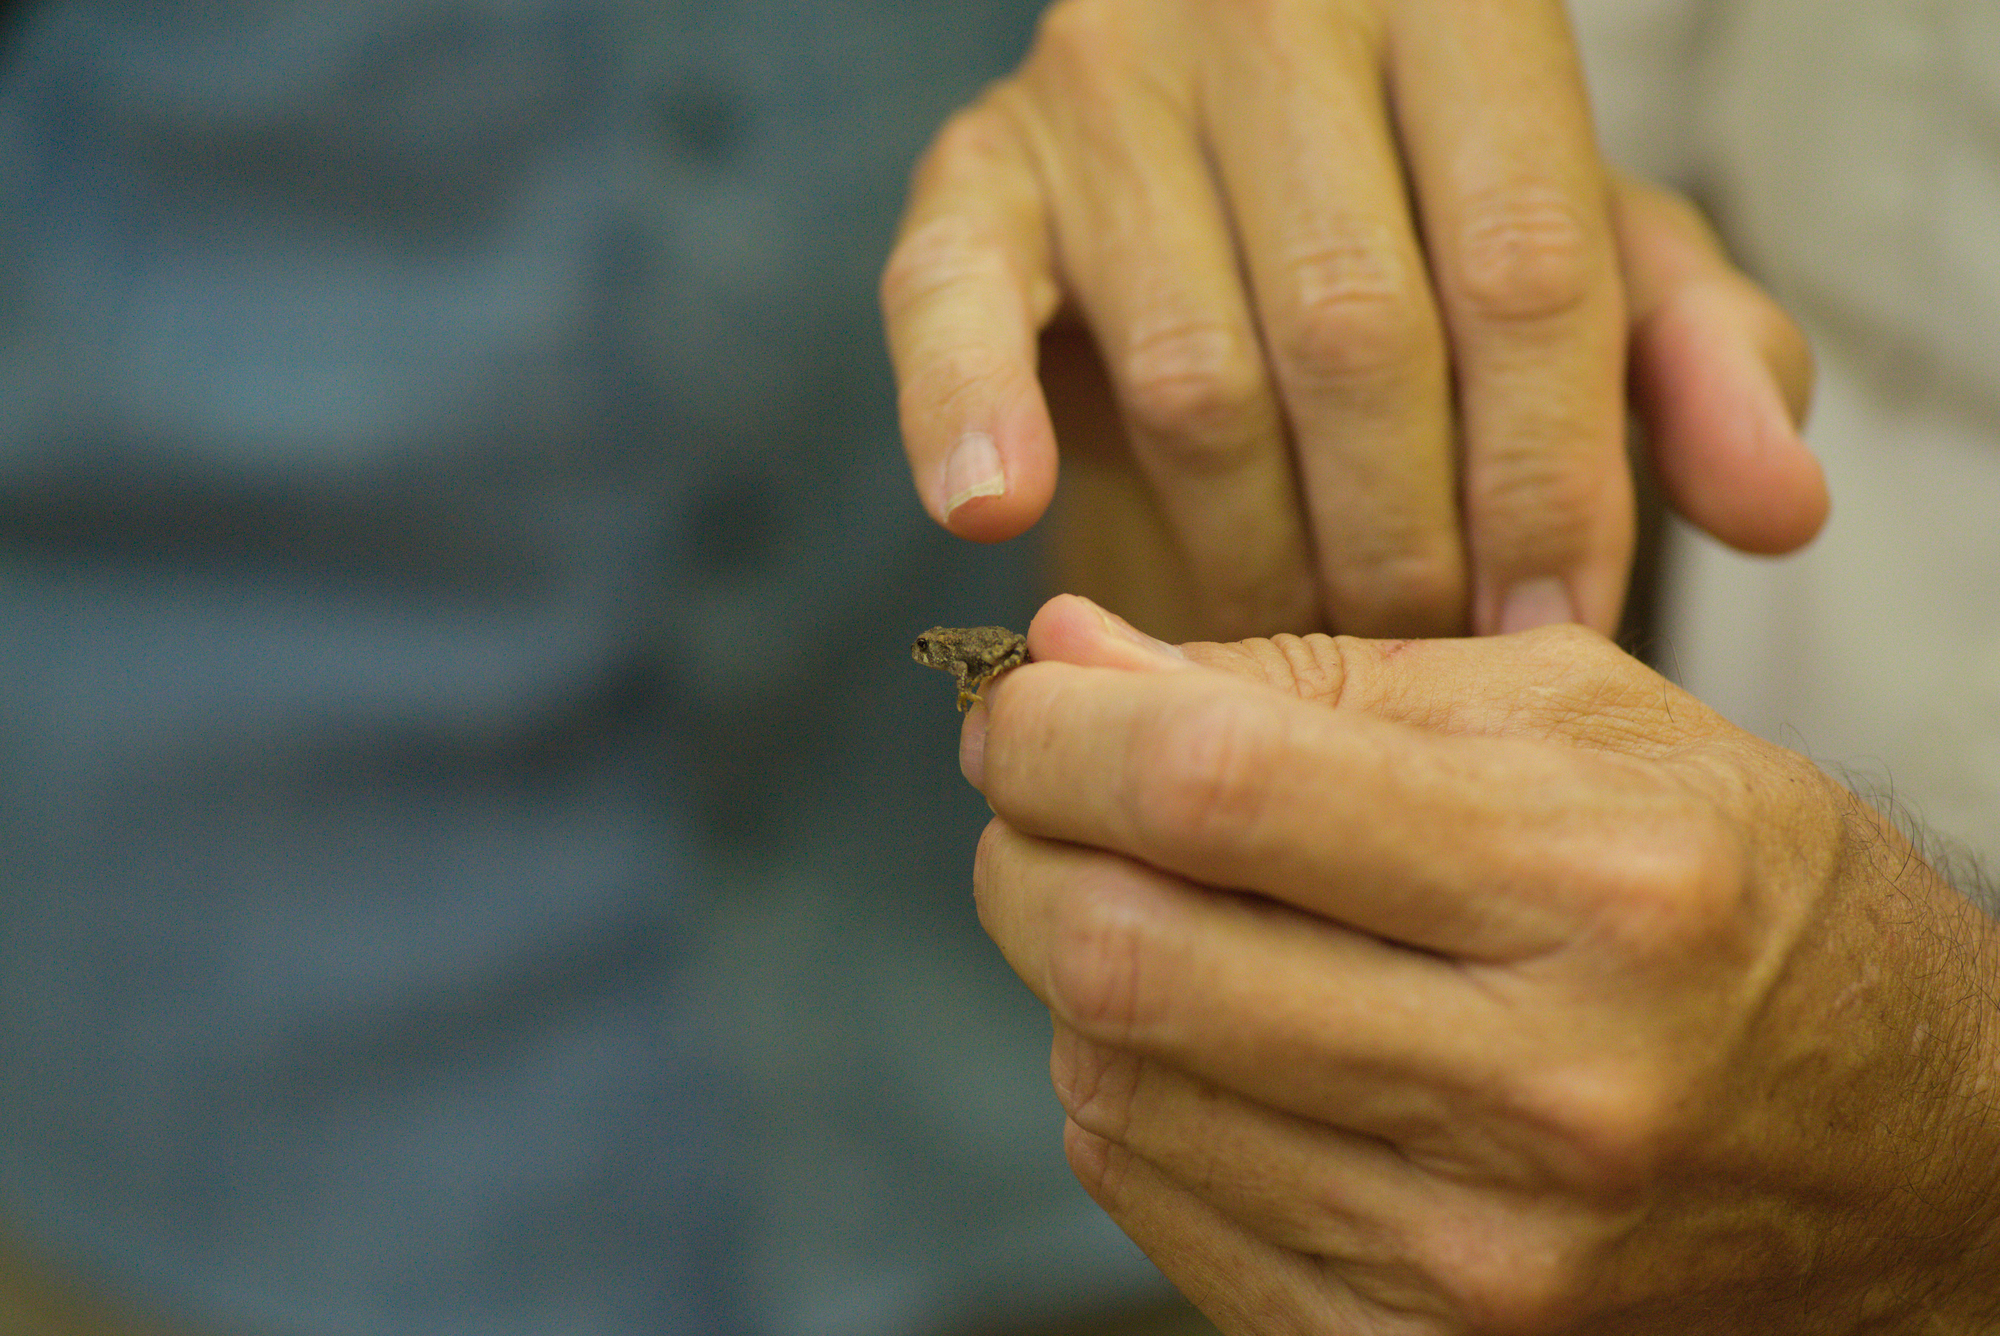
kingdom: Animalia
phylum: Chordata
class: Amphibia
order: Anura
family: Bufonidae
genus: Anaxyrus
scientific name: Anaxyrus americanus
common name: American toad
